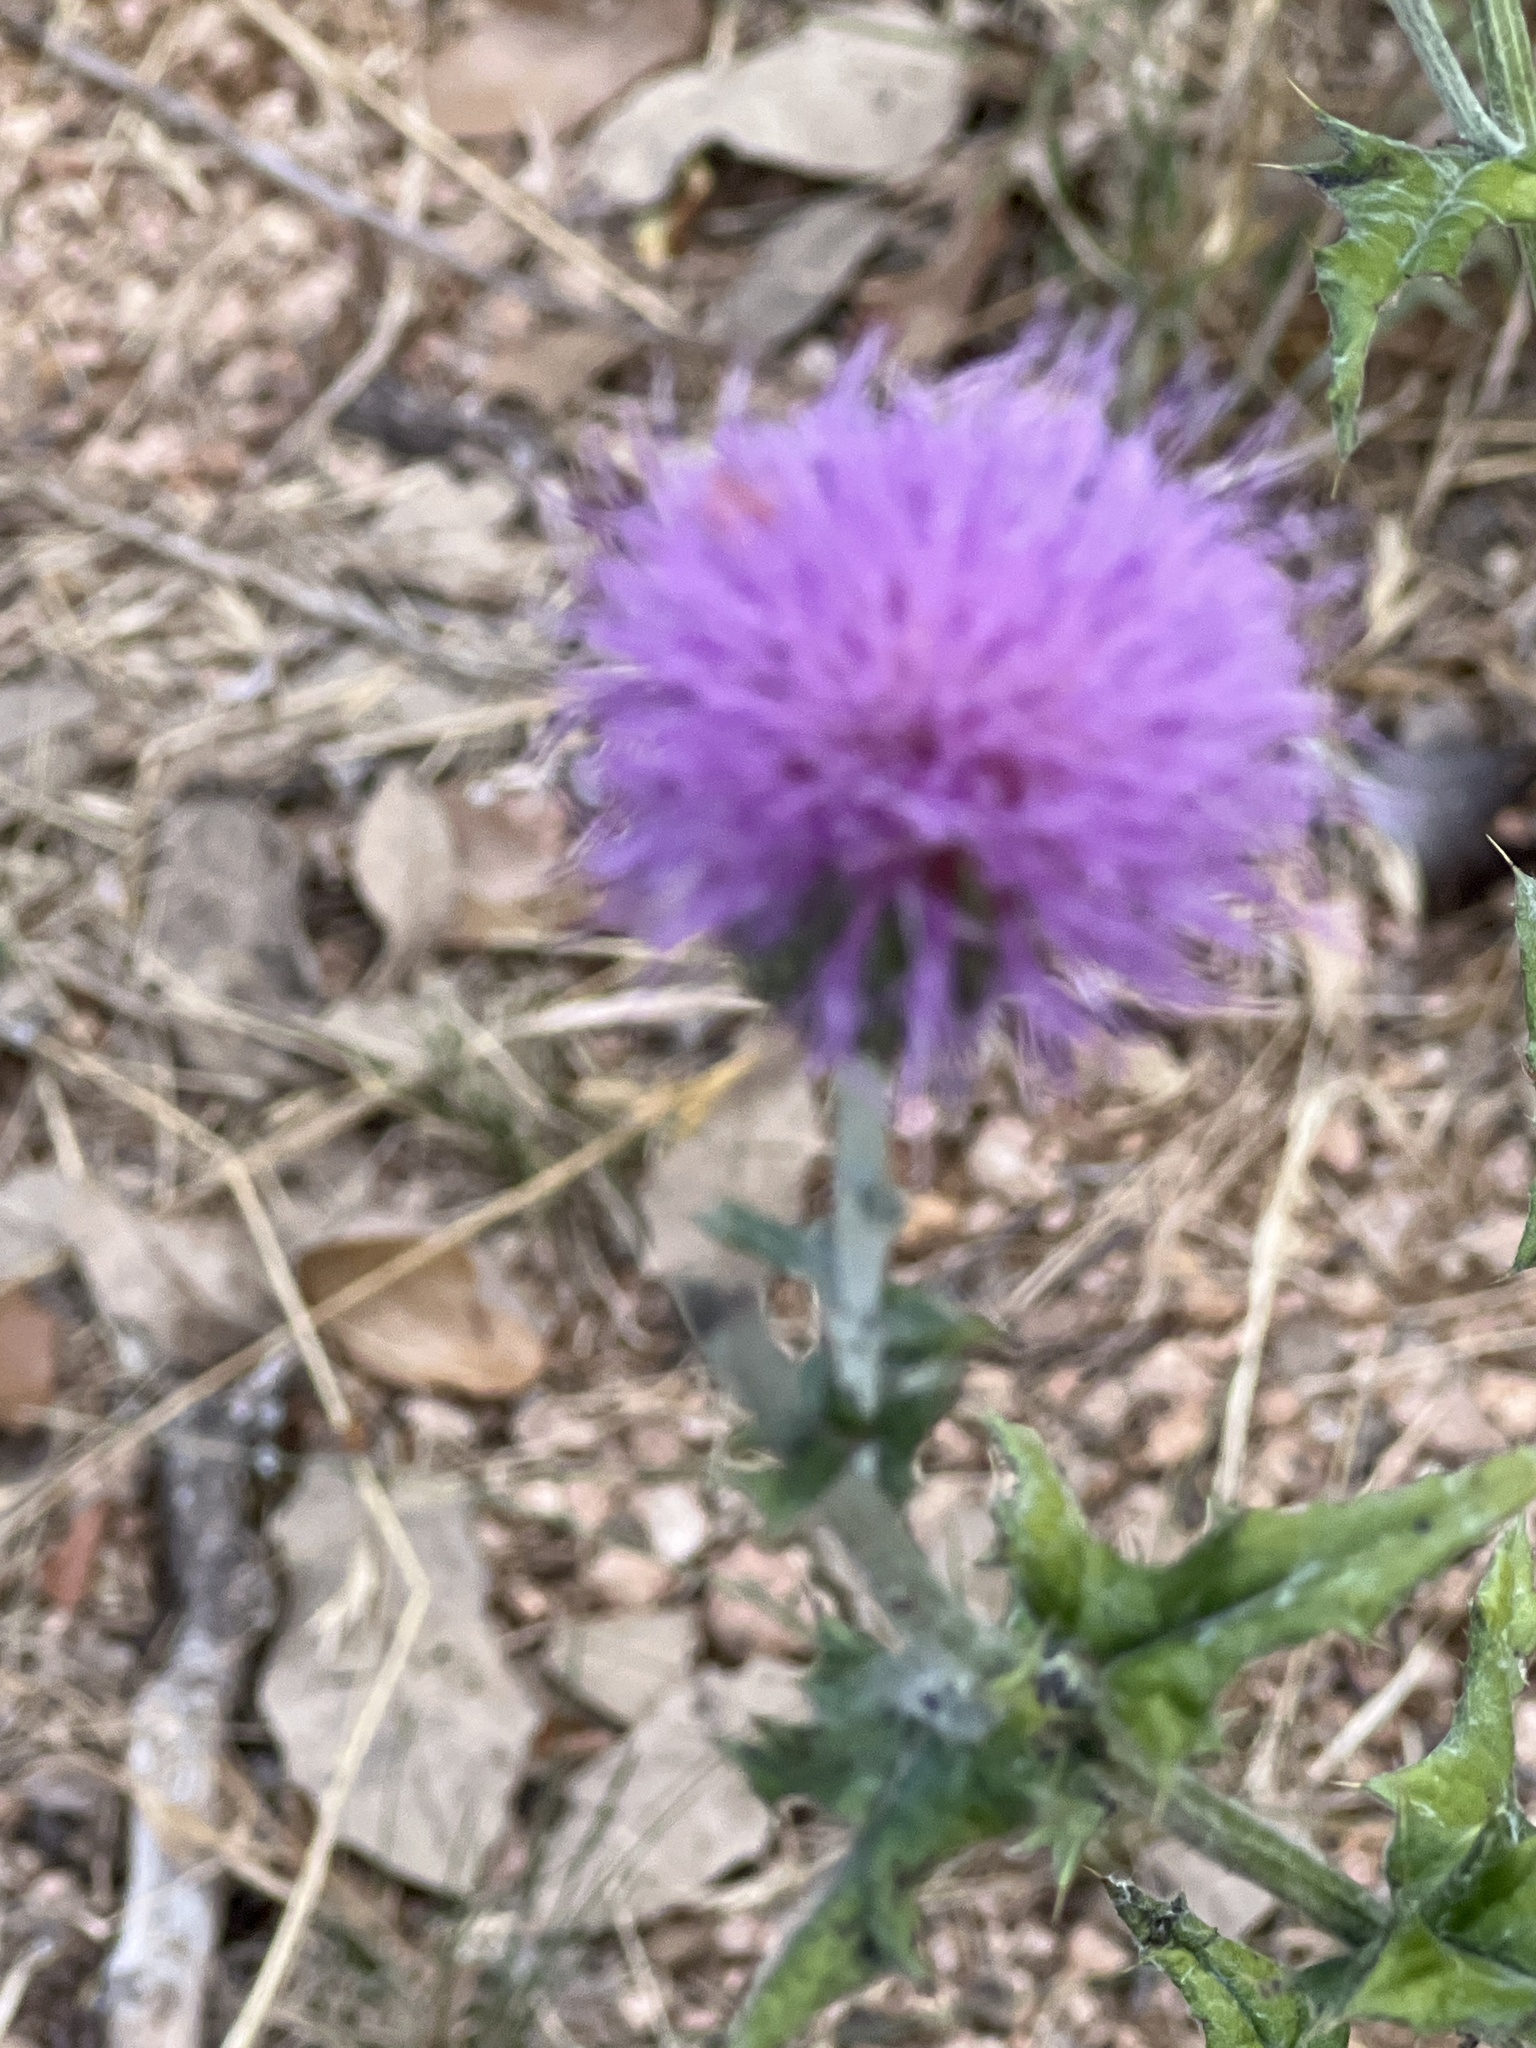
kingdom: Plantae
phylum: Tracheophyta
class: Magnoliopsida
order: Asterales
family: Asteraceae
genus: Cirsium
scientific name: Cirsium texanum
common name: Texas purple thistle
